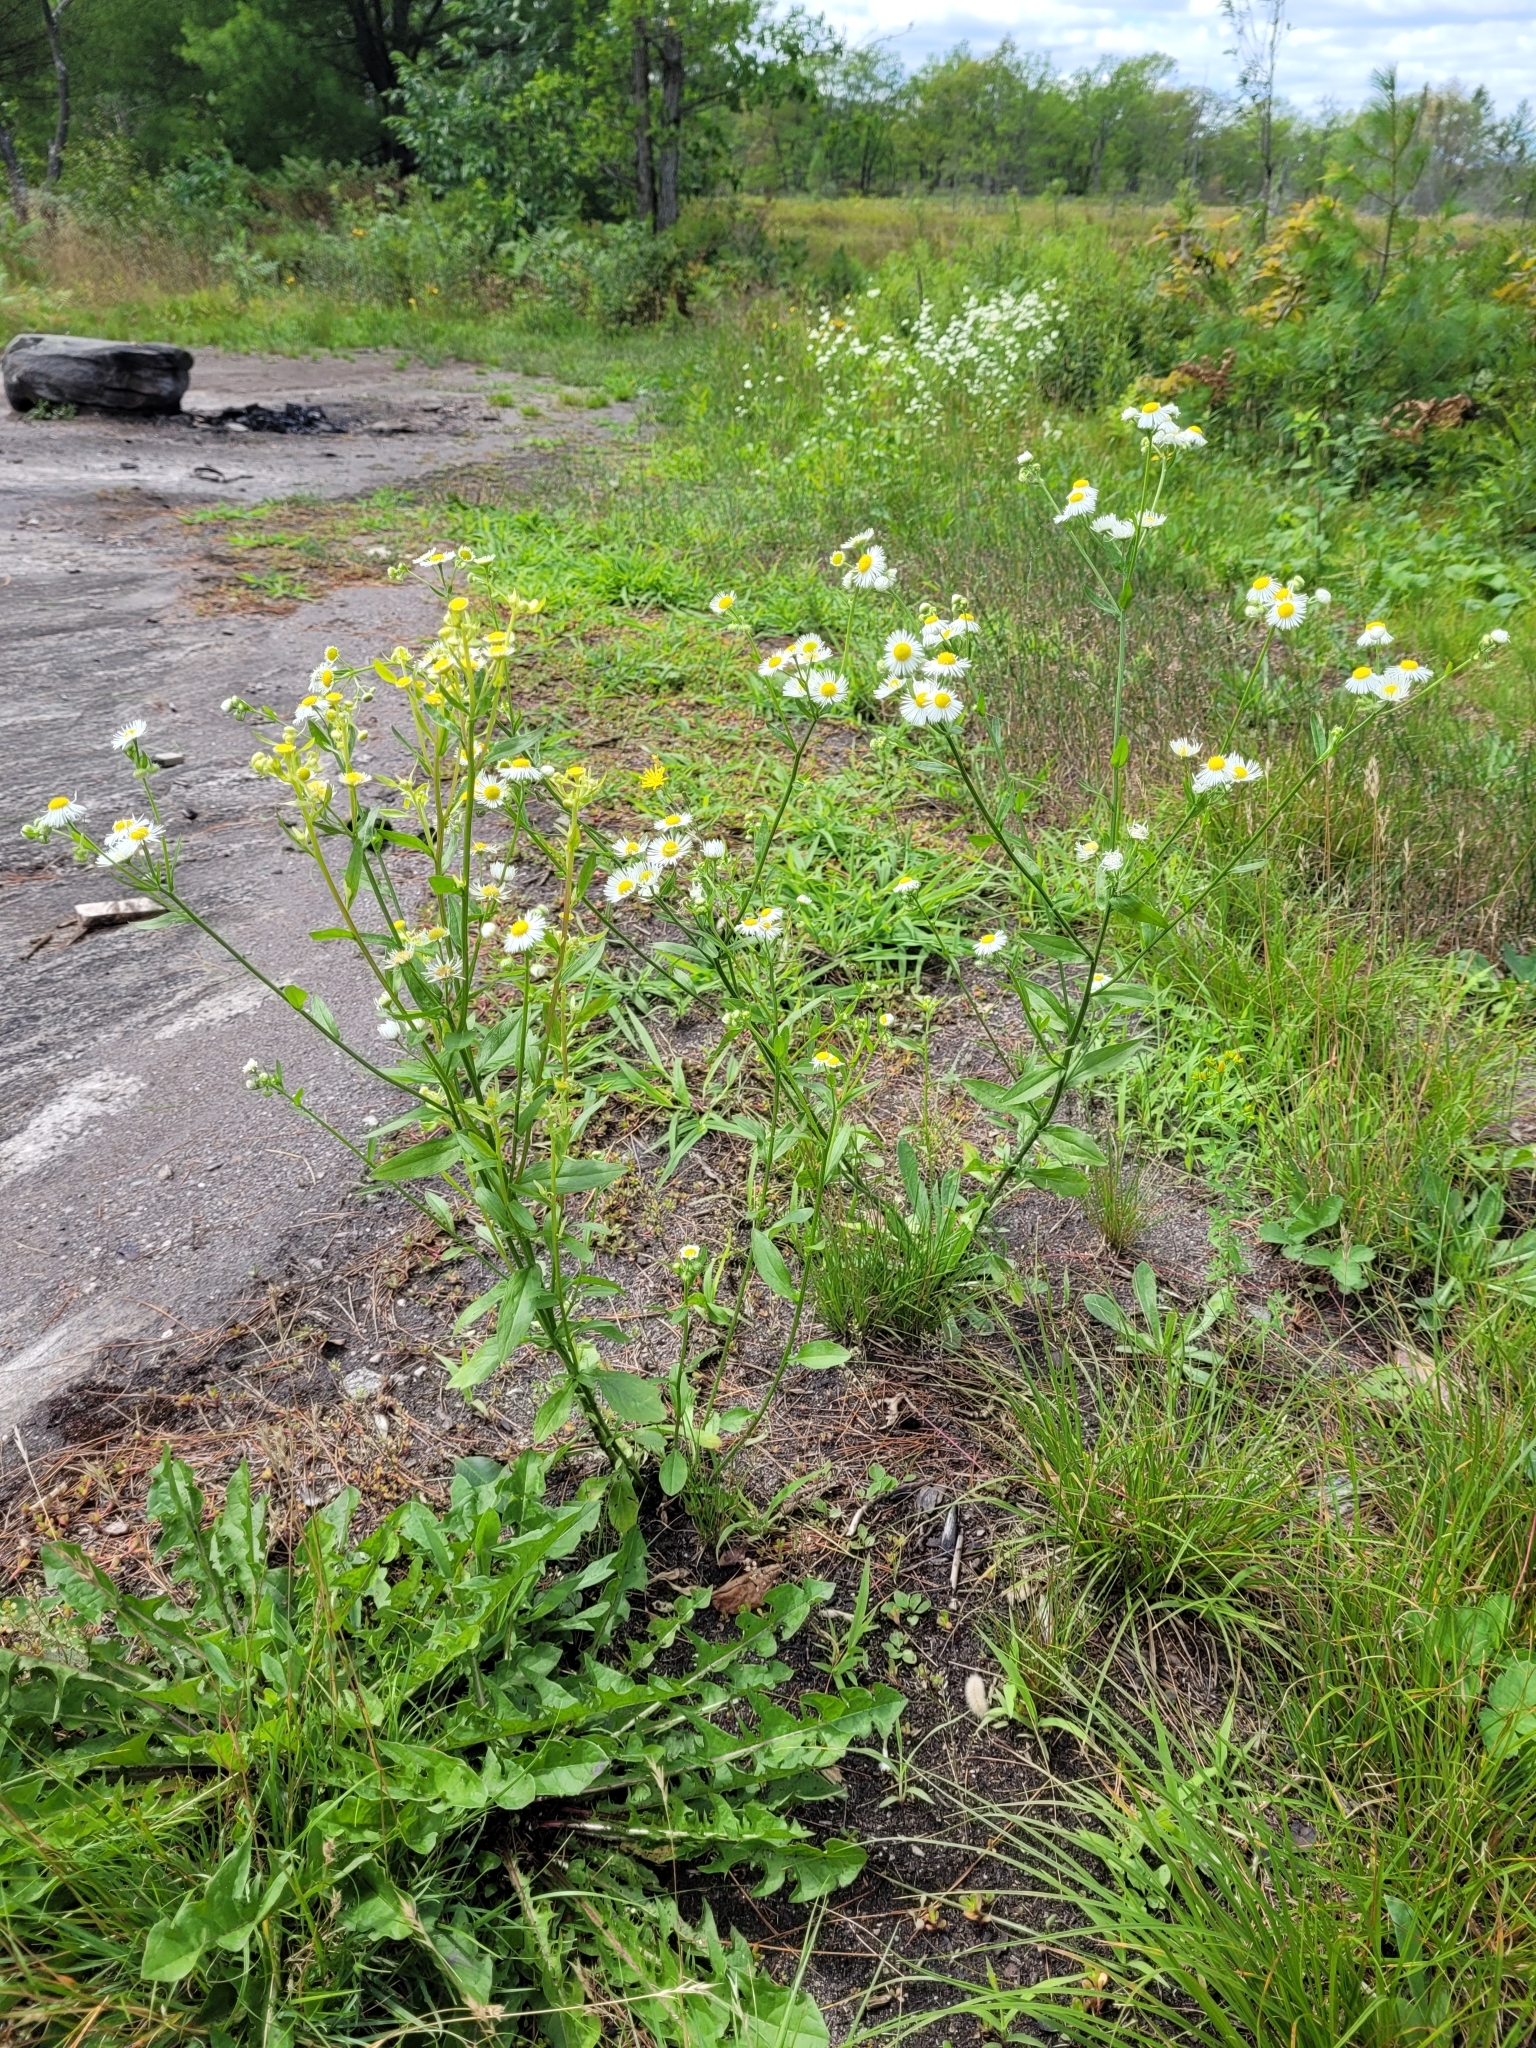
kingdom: Plantae
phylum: Tracheophyta
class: Magnoliopsida
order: Asterales
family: Asteraceae
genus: Erigeron
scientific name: Erigeron strigosus
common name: Common eastern fleabane
